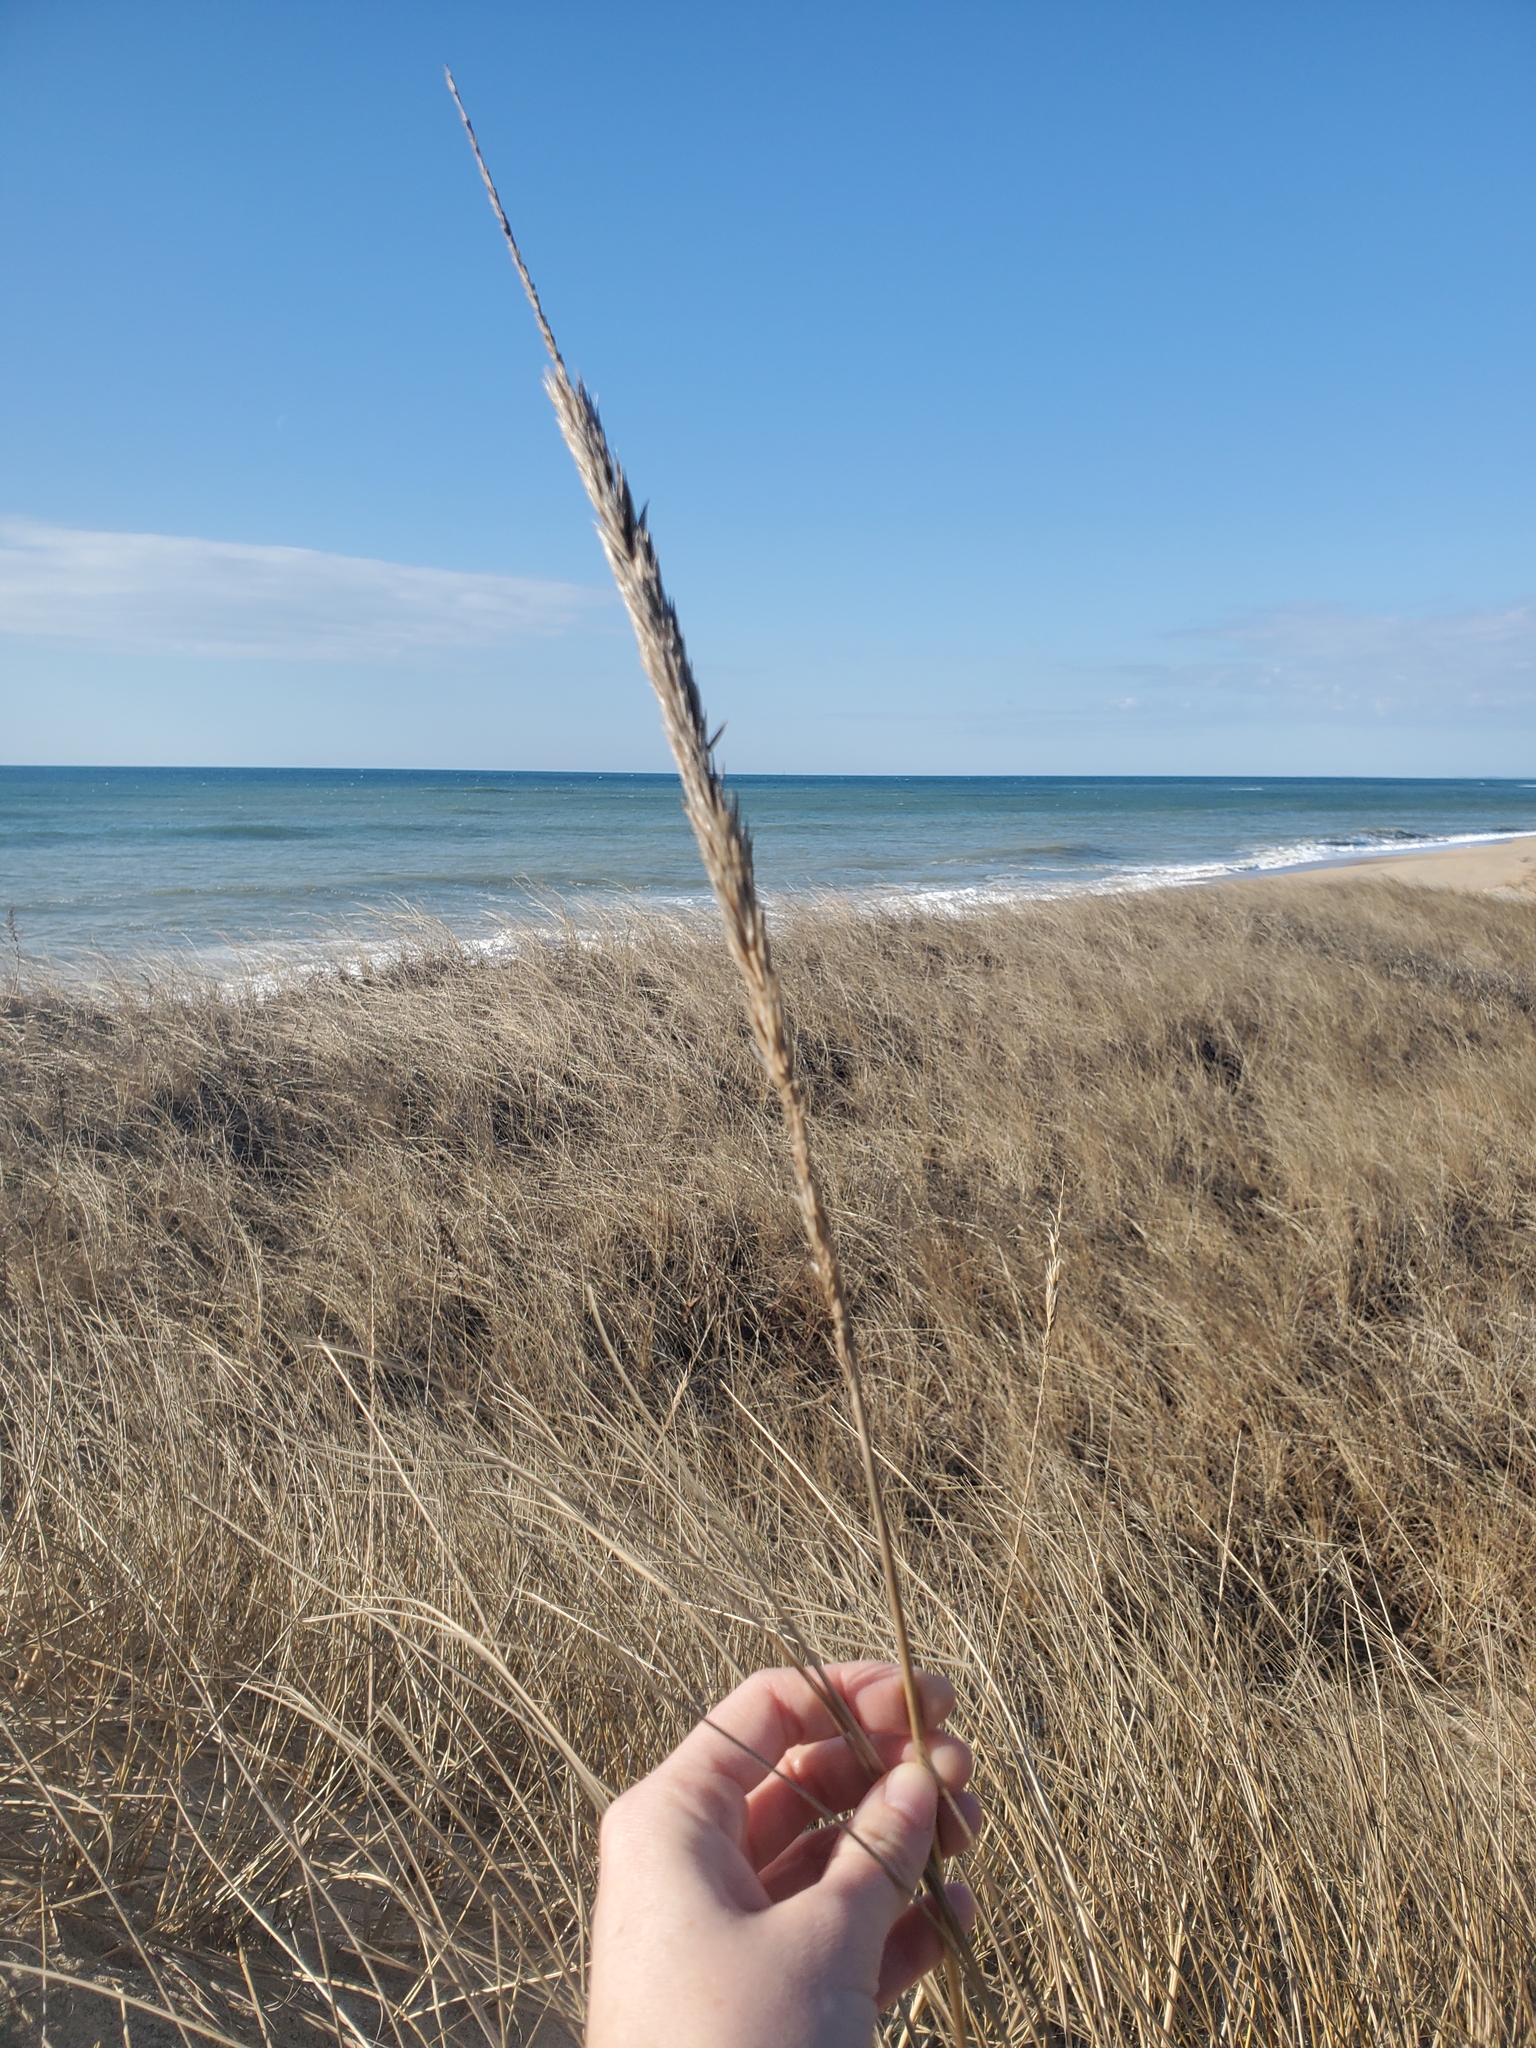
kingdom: Plantae
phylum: Tracheophyta
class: Liliopsida
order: Poales
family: Poaceae
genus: Calamagrostis
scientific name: Calamagrostis breviligulata
